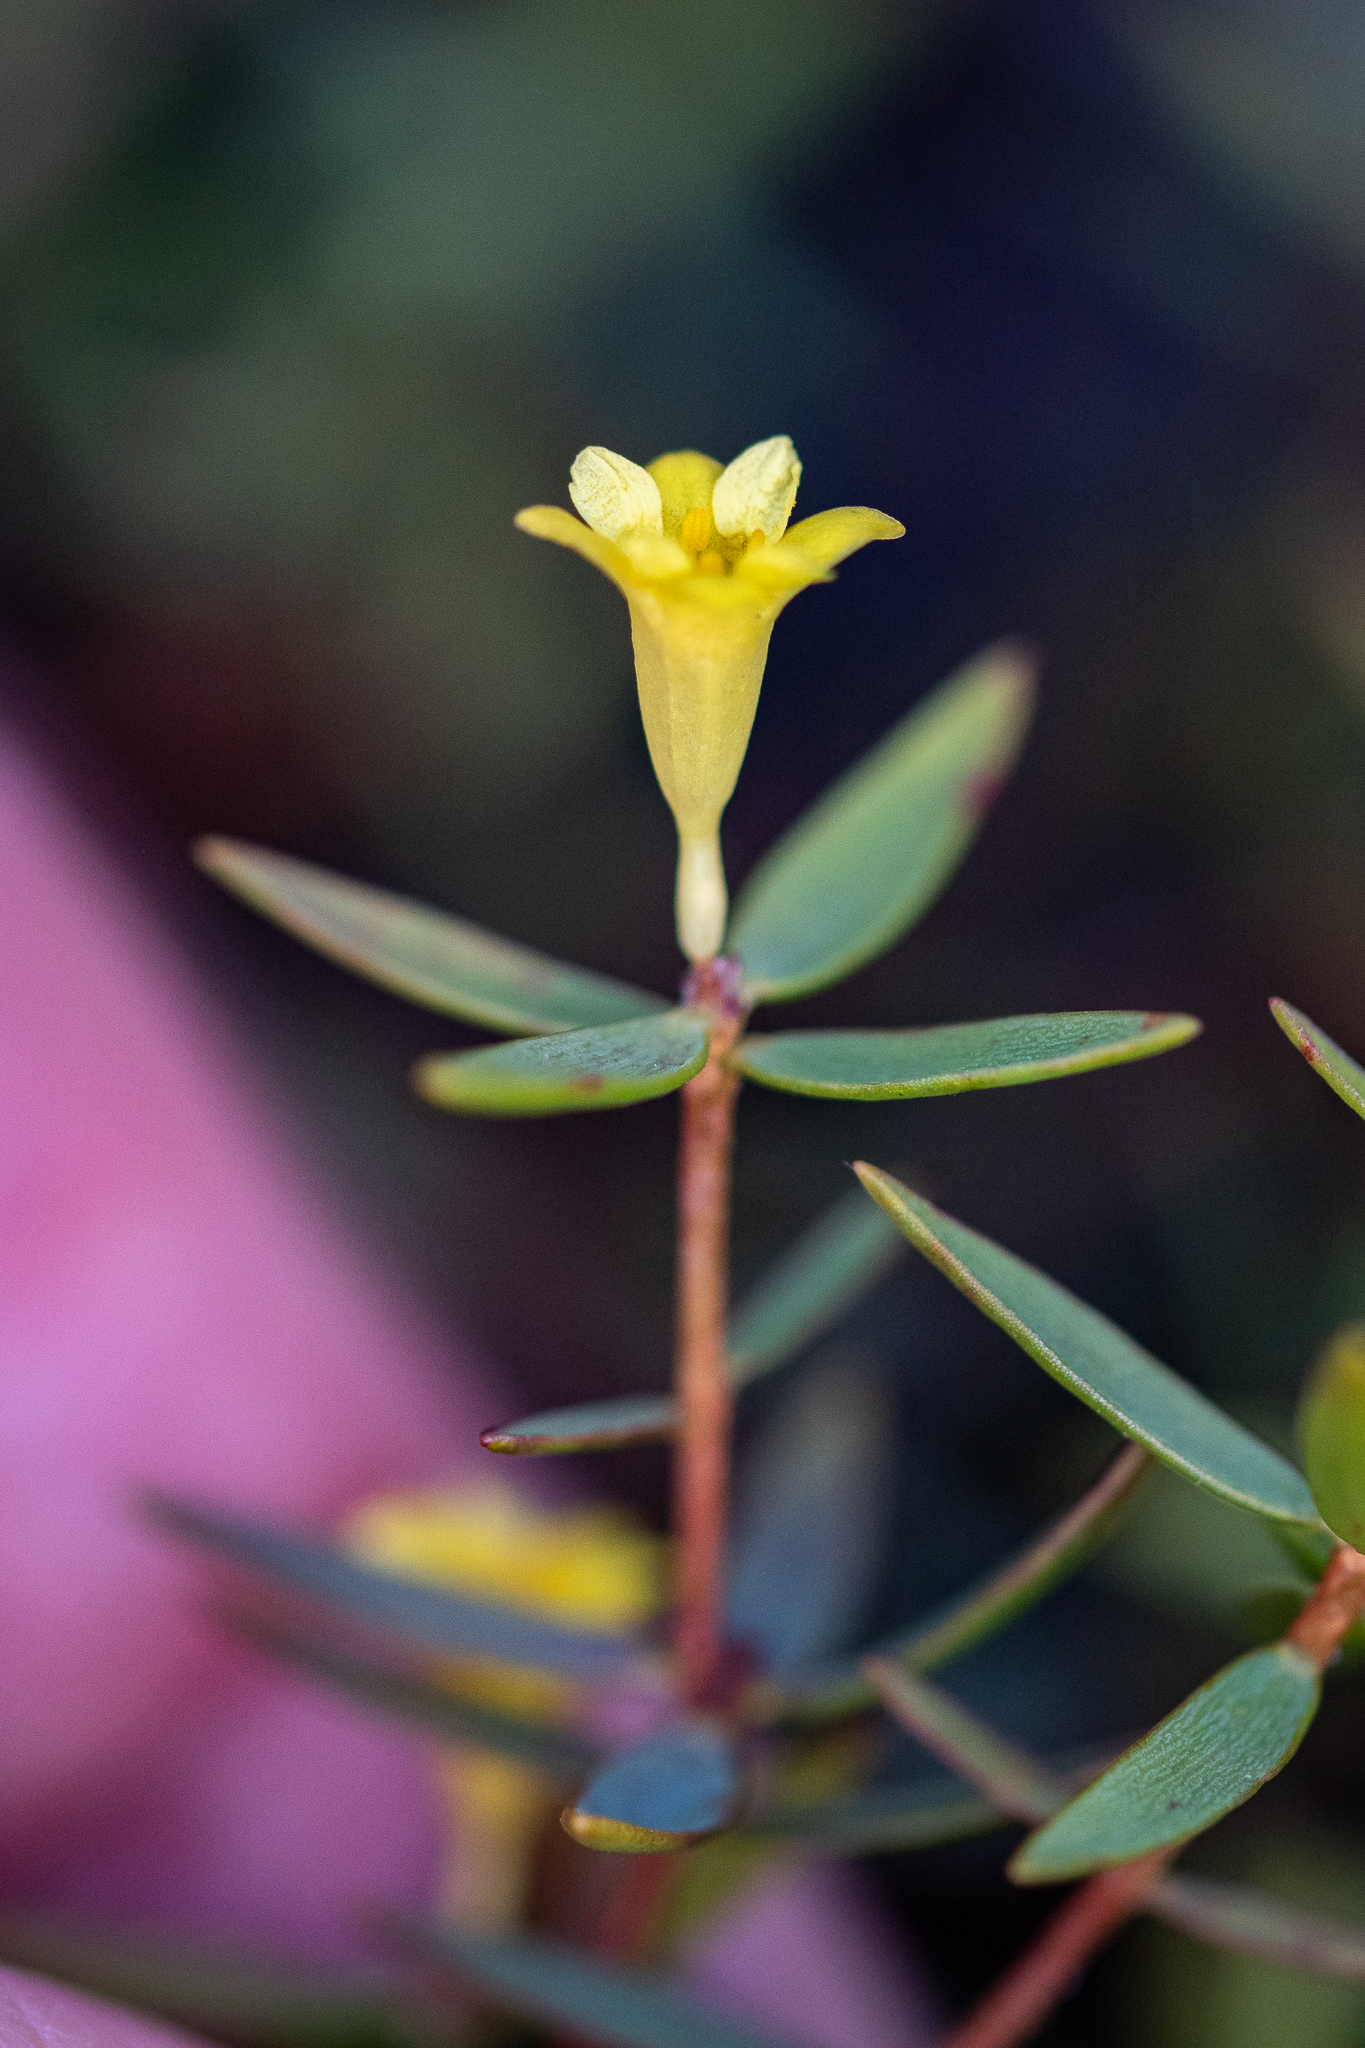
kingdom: Plantae
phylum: Tracheophyta
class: Magnoliopsida
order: Malvales
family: Thymelaeaceae
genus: Gnidia
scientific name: Gnidia juniperifolia
